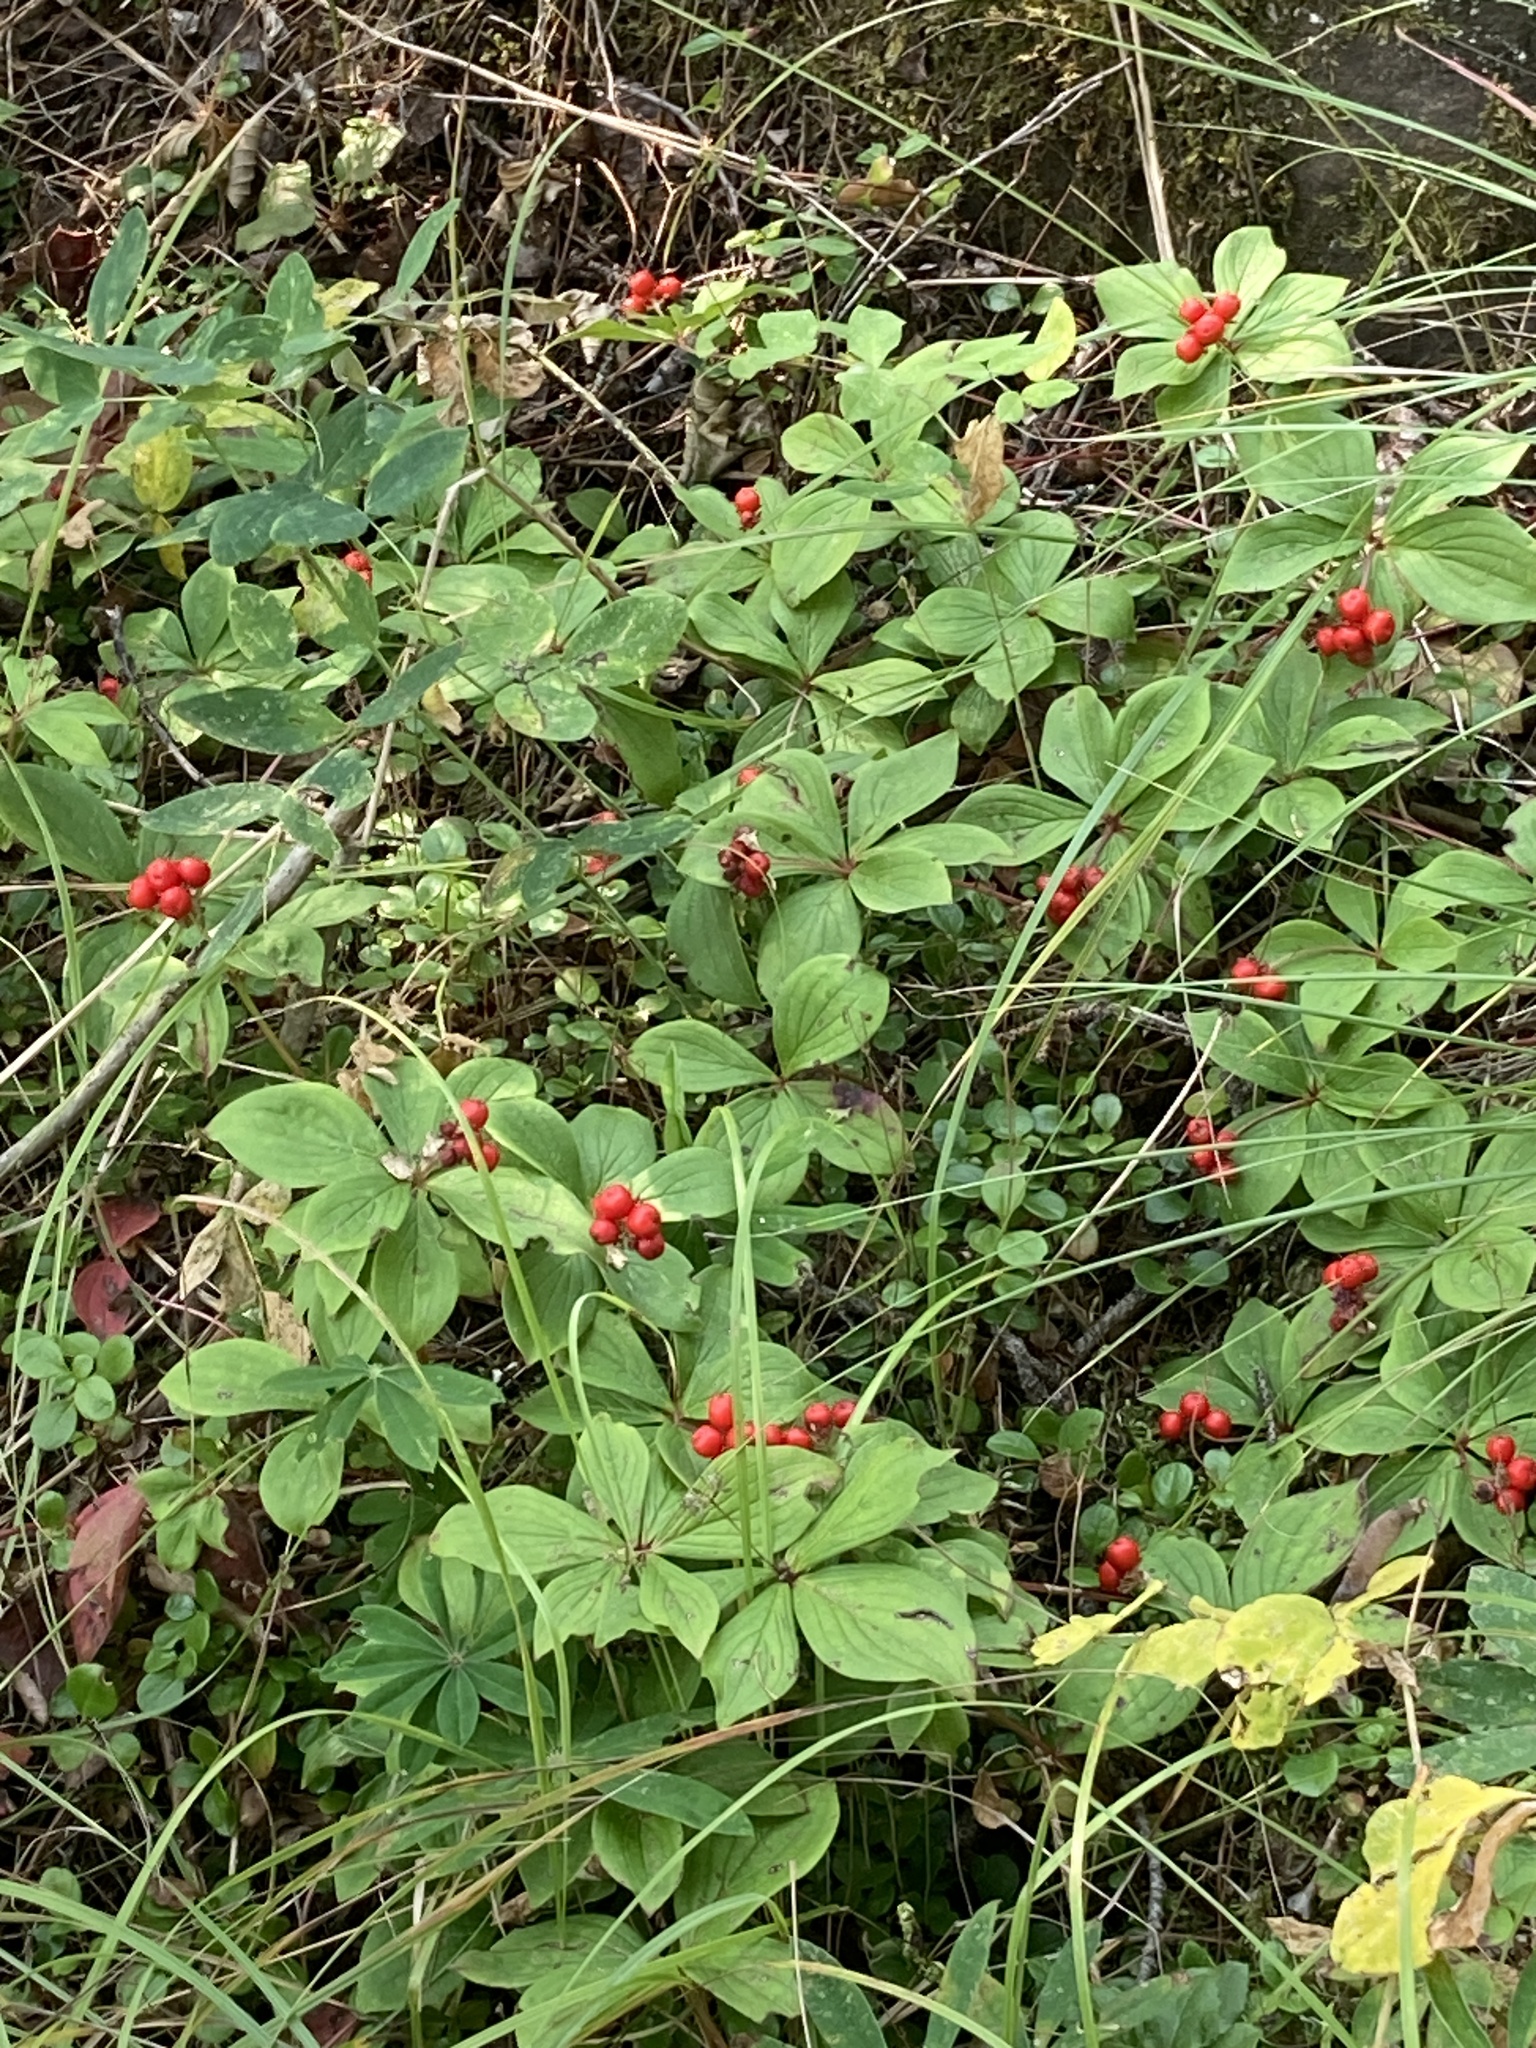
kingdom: Plantae
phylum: Tracheophyta
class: Magnoliopsida
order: Cornales
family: Cornaceae
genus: Cornus
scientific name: Cornus canadensis
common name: Creeping dogwood
